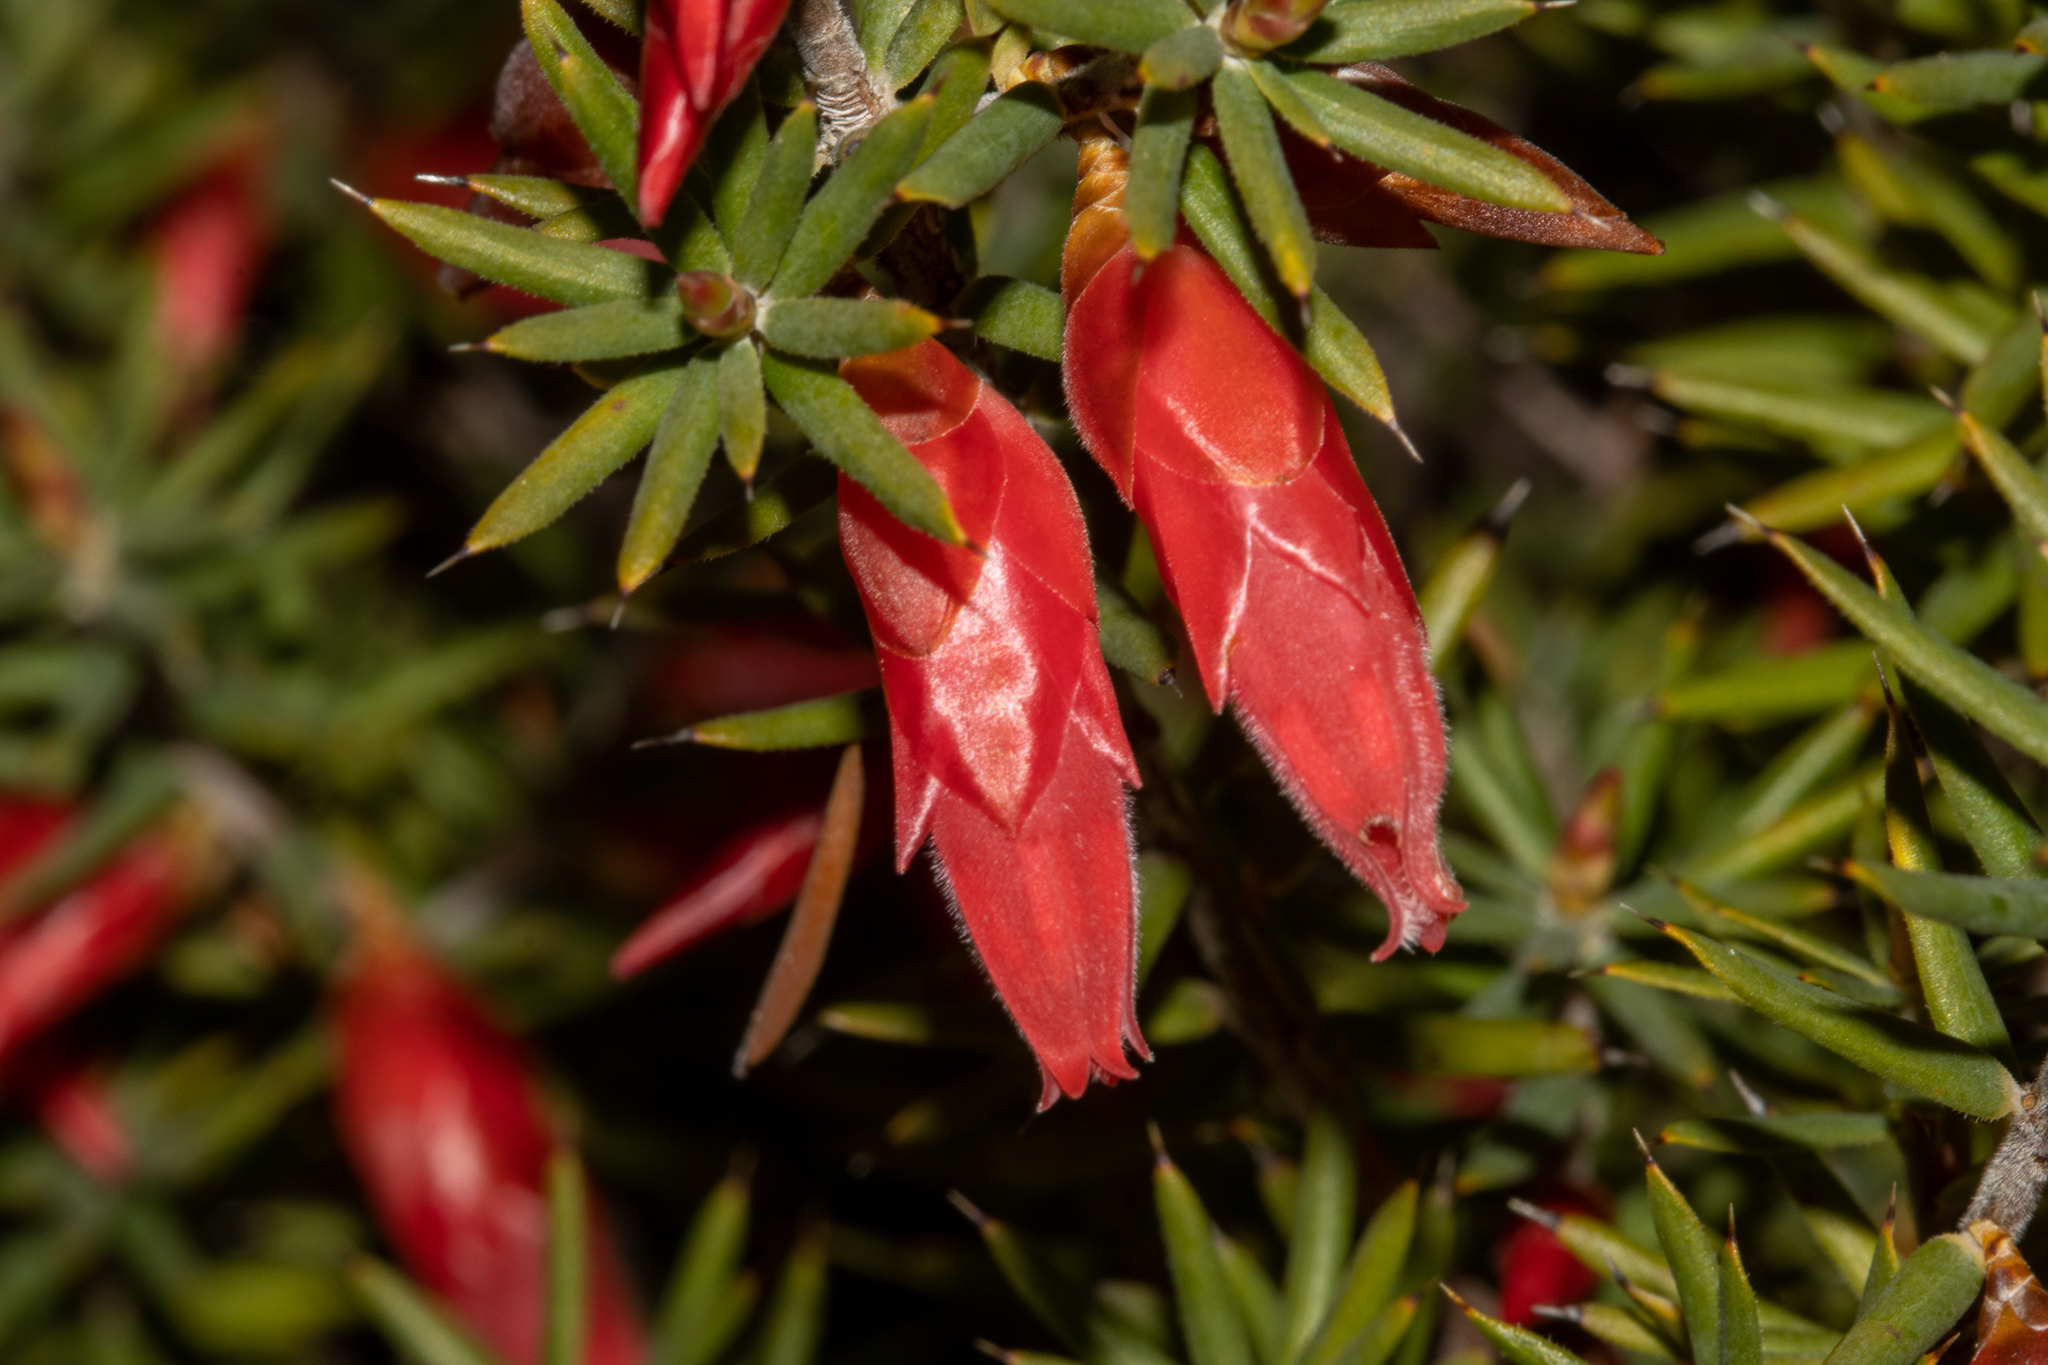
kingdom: Plantae
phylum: Tracheophyta
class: Magnoliopsida
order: Ericales
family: Ericaceae
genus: Stenanthera
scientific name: Stenanthera conostephioides
